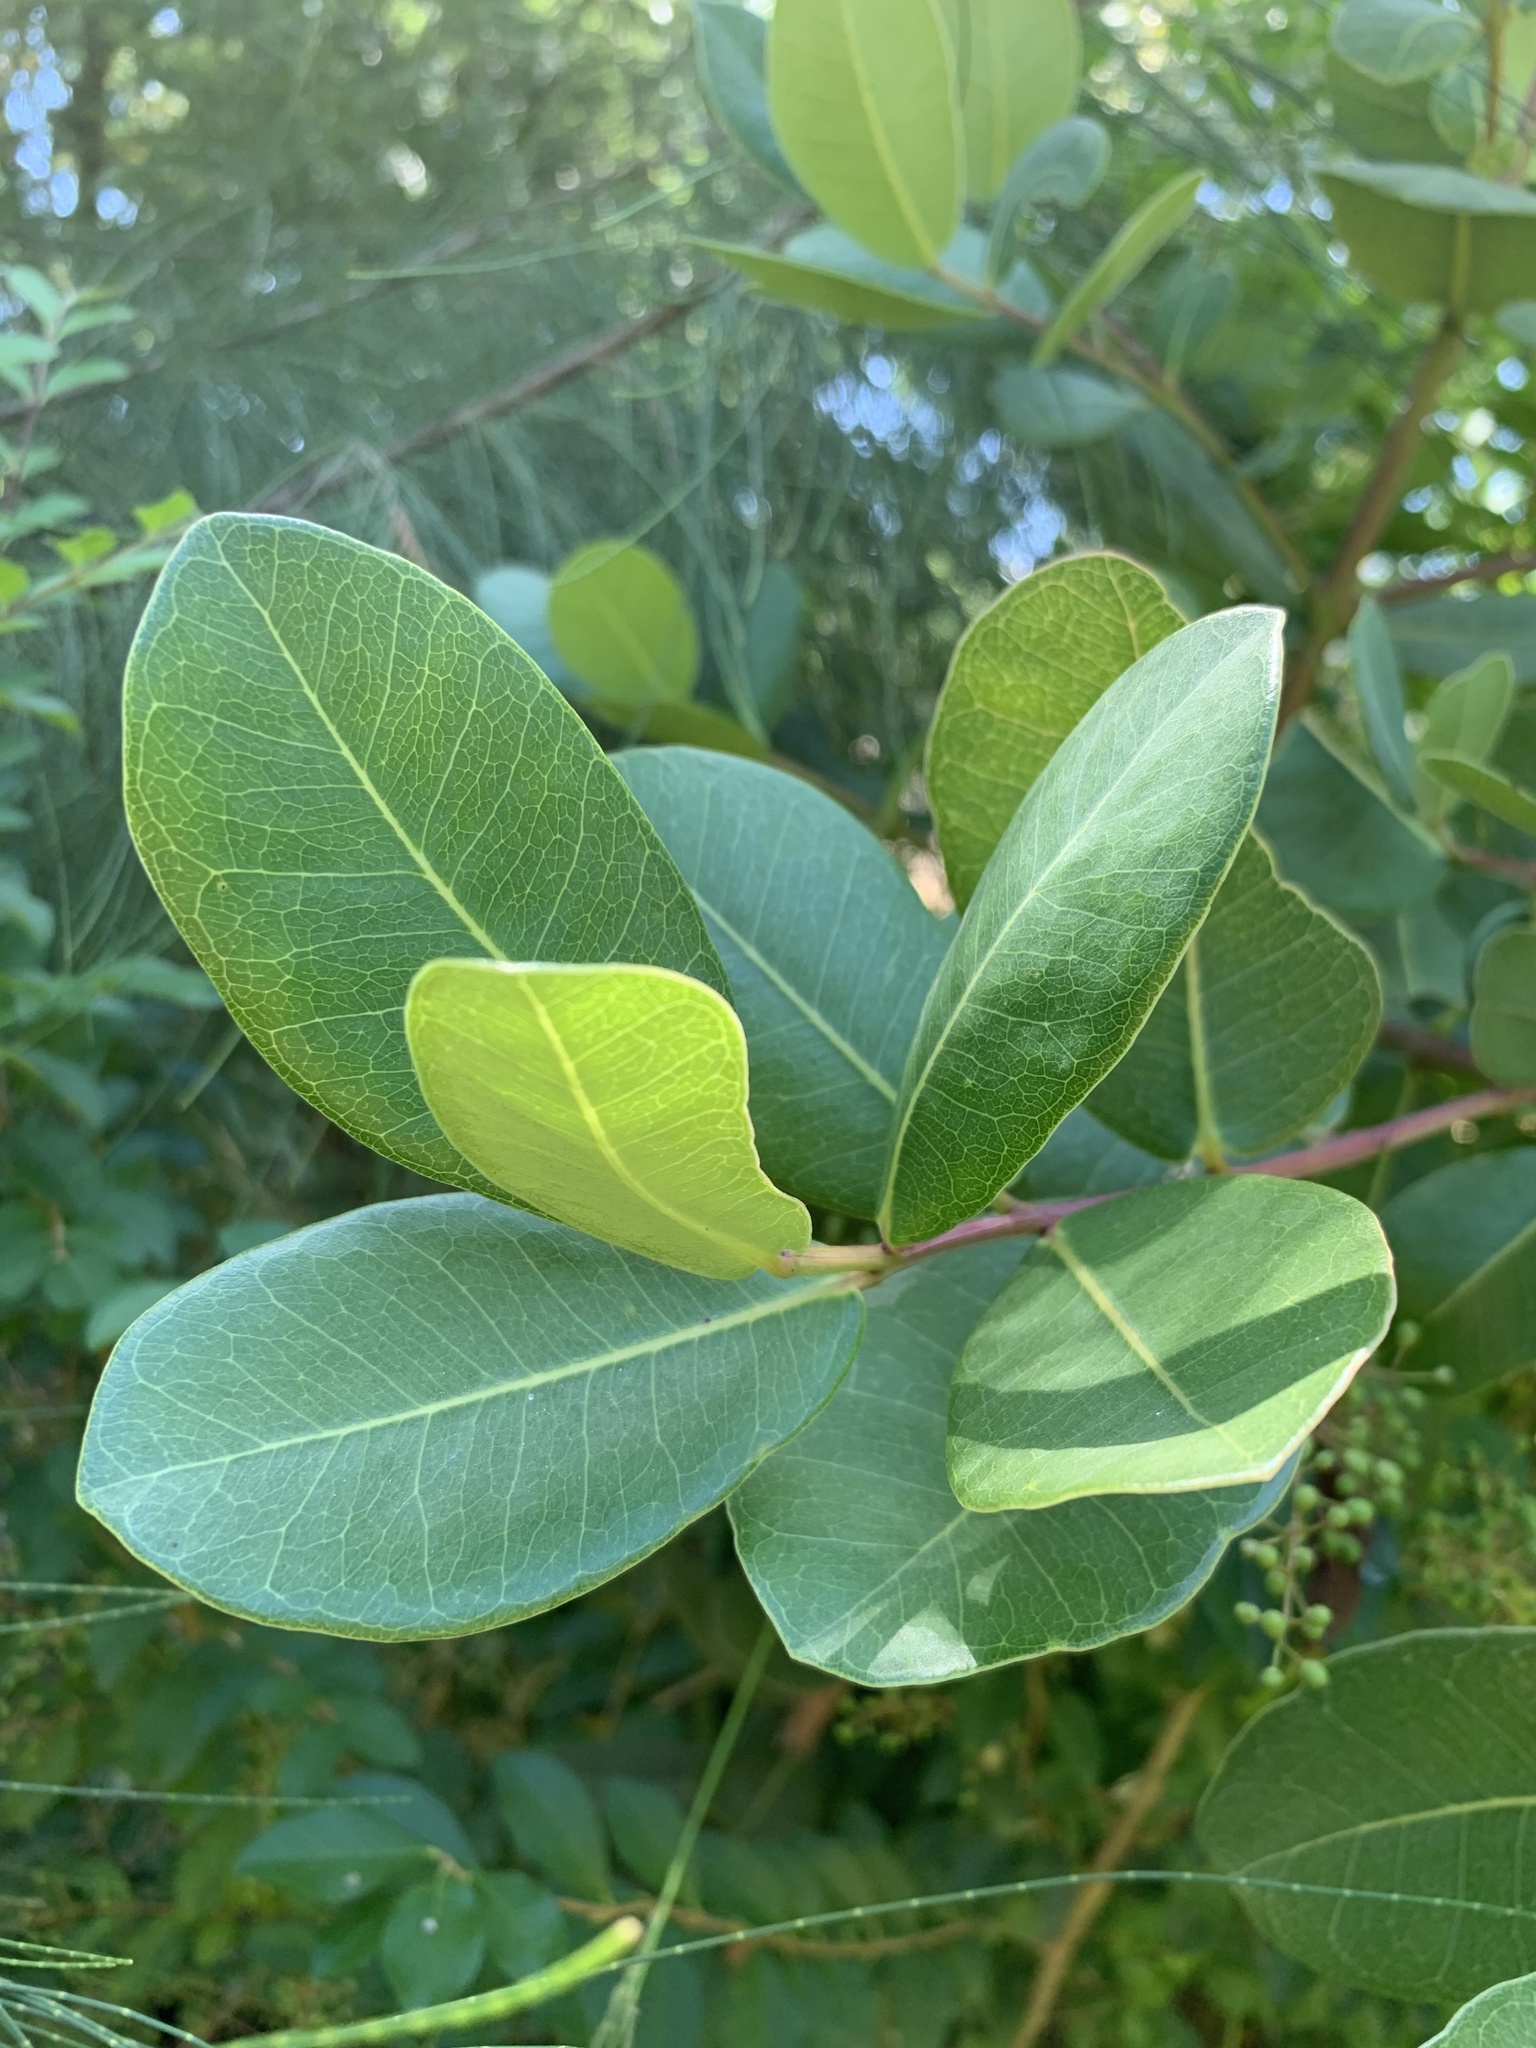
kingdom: Plantae
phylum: Tracheophyta
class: Magnoliopsida
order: Myrtales
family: Myrtaceae
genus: Syzygium
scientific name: Syzygium cordatum
